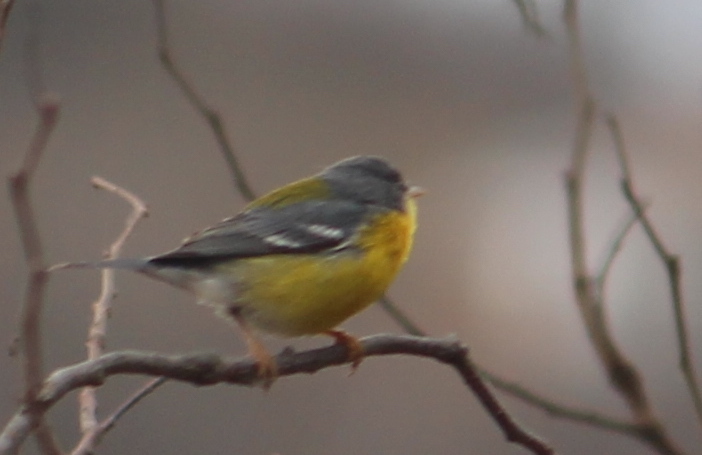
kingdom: Animalia
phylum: Chordata
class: Aves
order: Passeriformes
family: Parulidae
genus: Setophaga
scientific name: Setophaga pitiayumi
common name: Tropical parula
